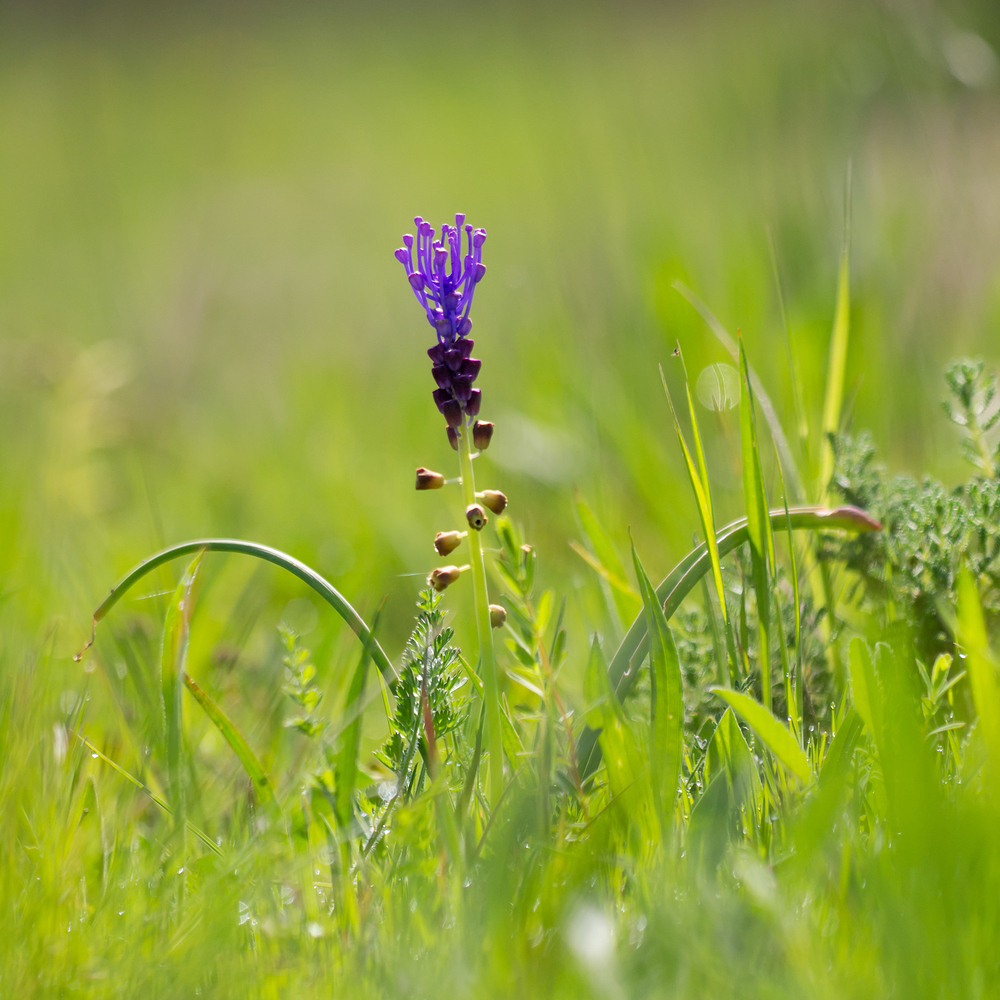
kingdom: Plantae
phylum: Tracheophyta
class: Liliopsida
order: Asparagales
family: Asparagaceae
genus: Muscari
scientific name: Muscari comosum
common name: Tassel hyacinth
